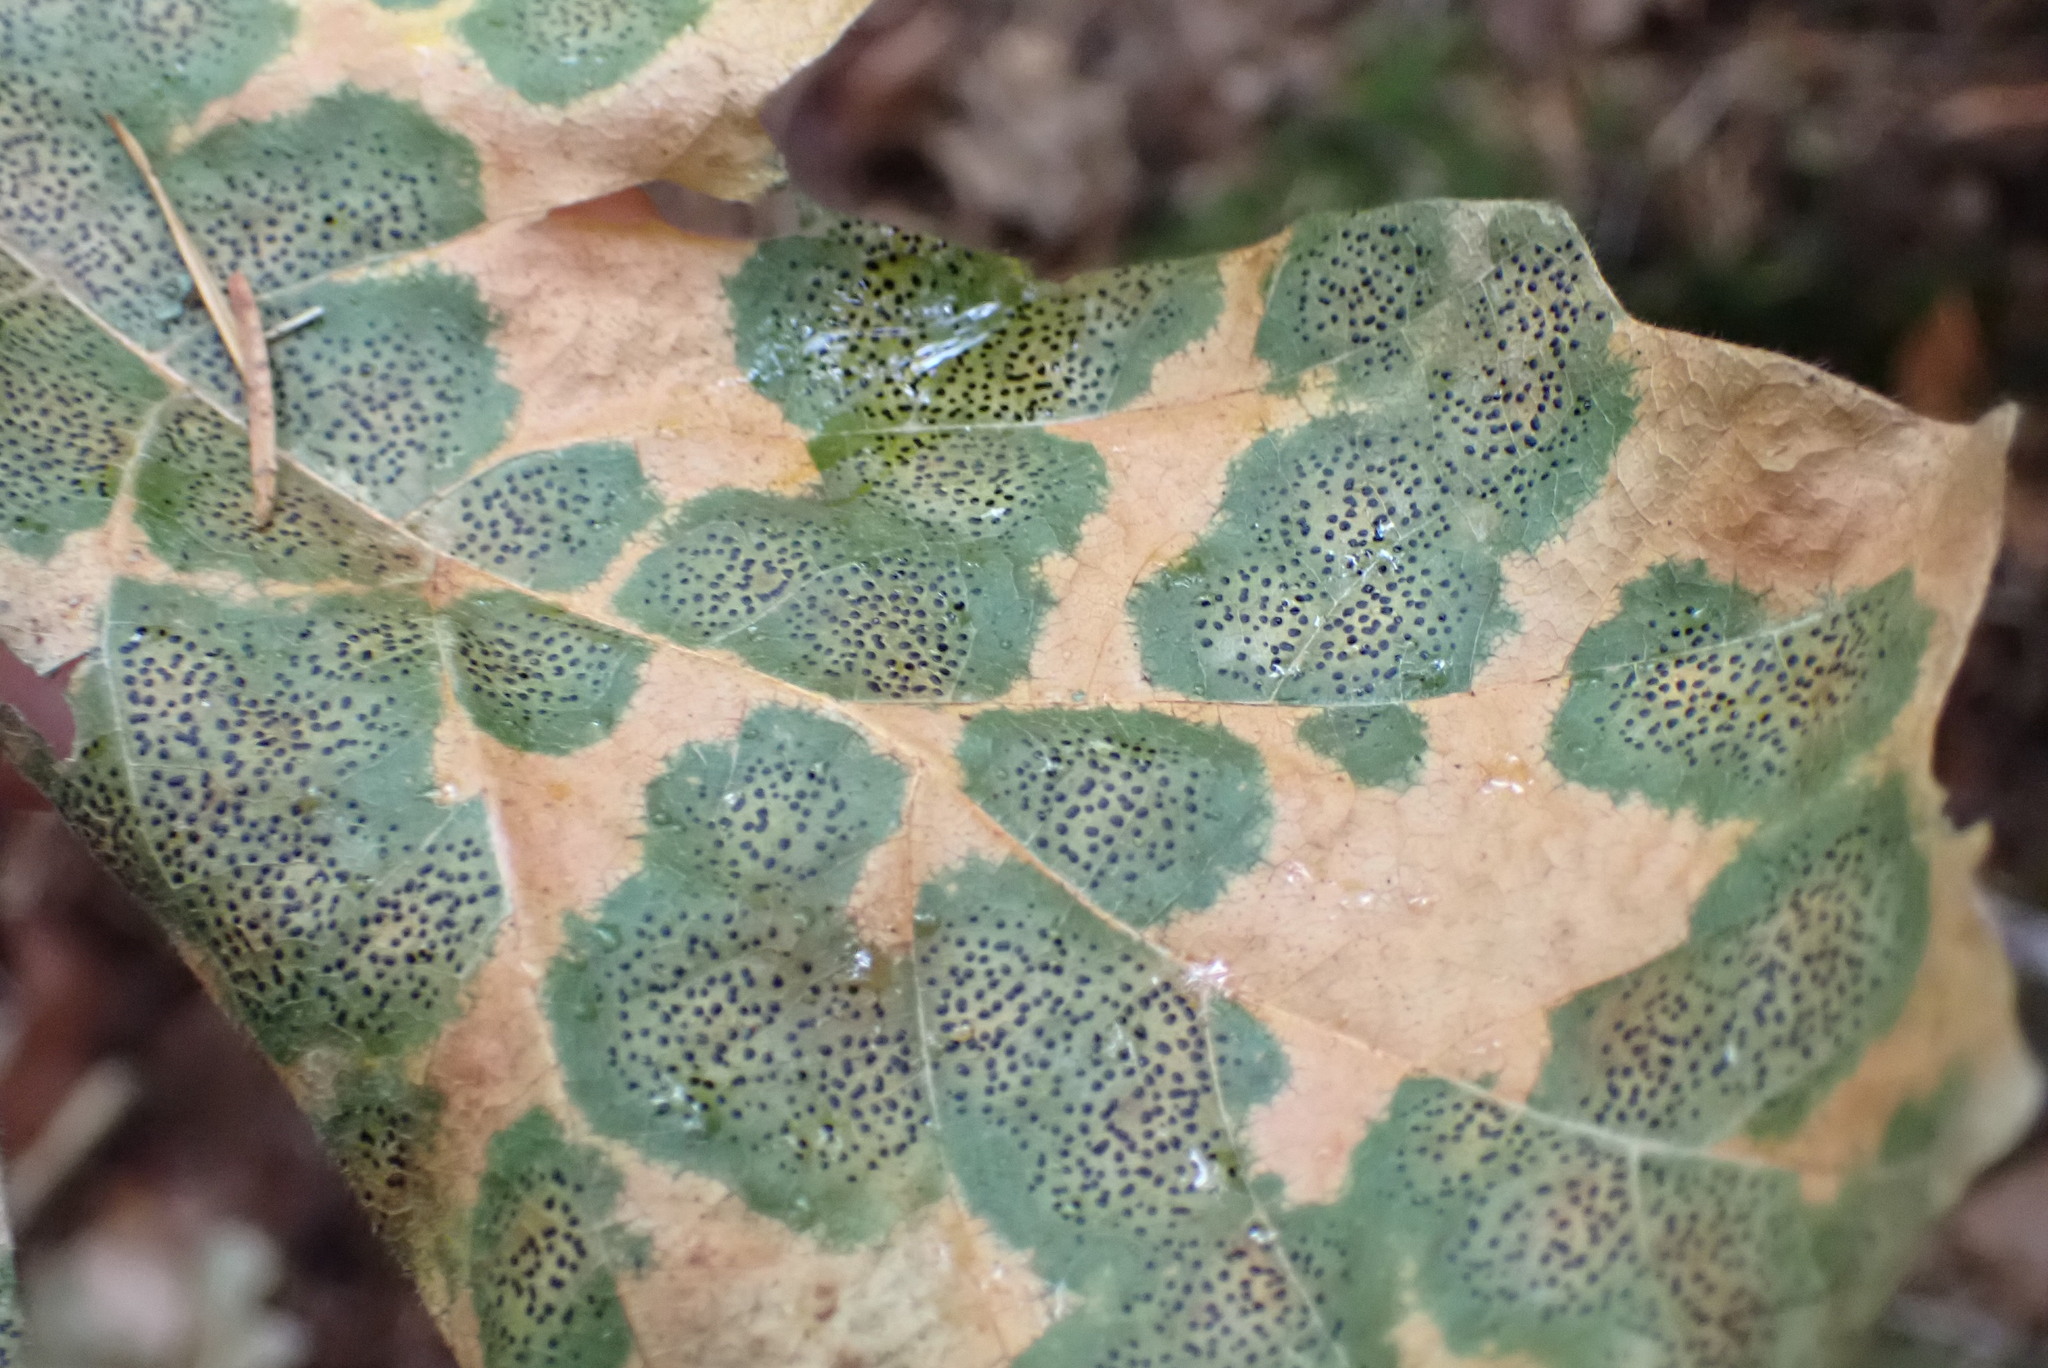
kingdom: Fungi
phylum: Ascomycota
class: Leotiomycetes
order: Rhytismatales
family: Rhytismataceae
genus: Rhytisma
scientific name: Rhytisma punctatum
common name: Speckled tar spot
